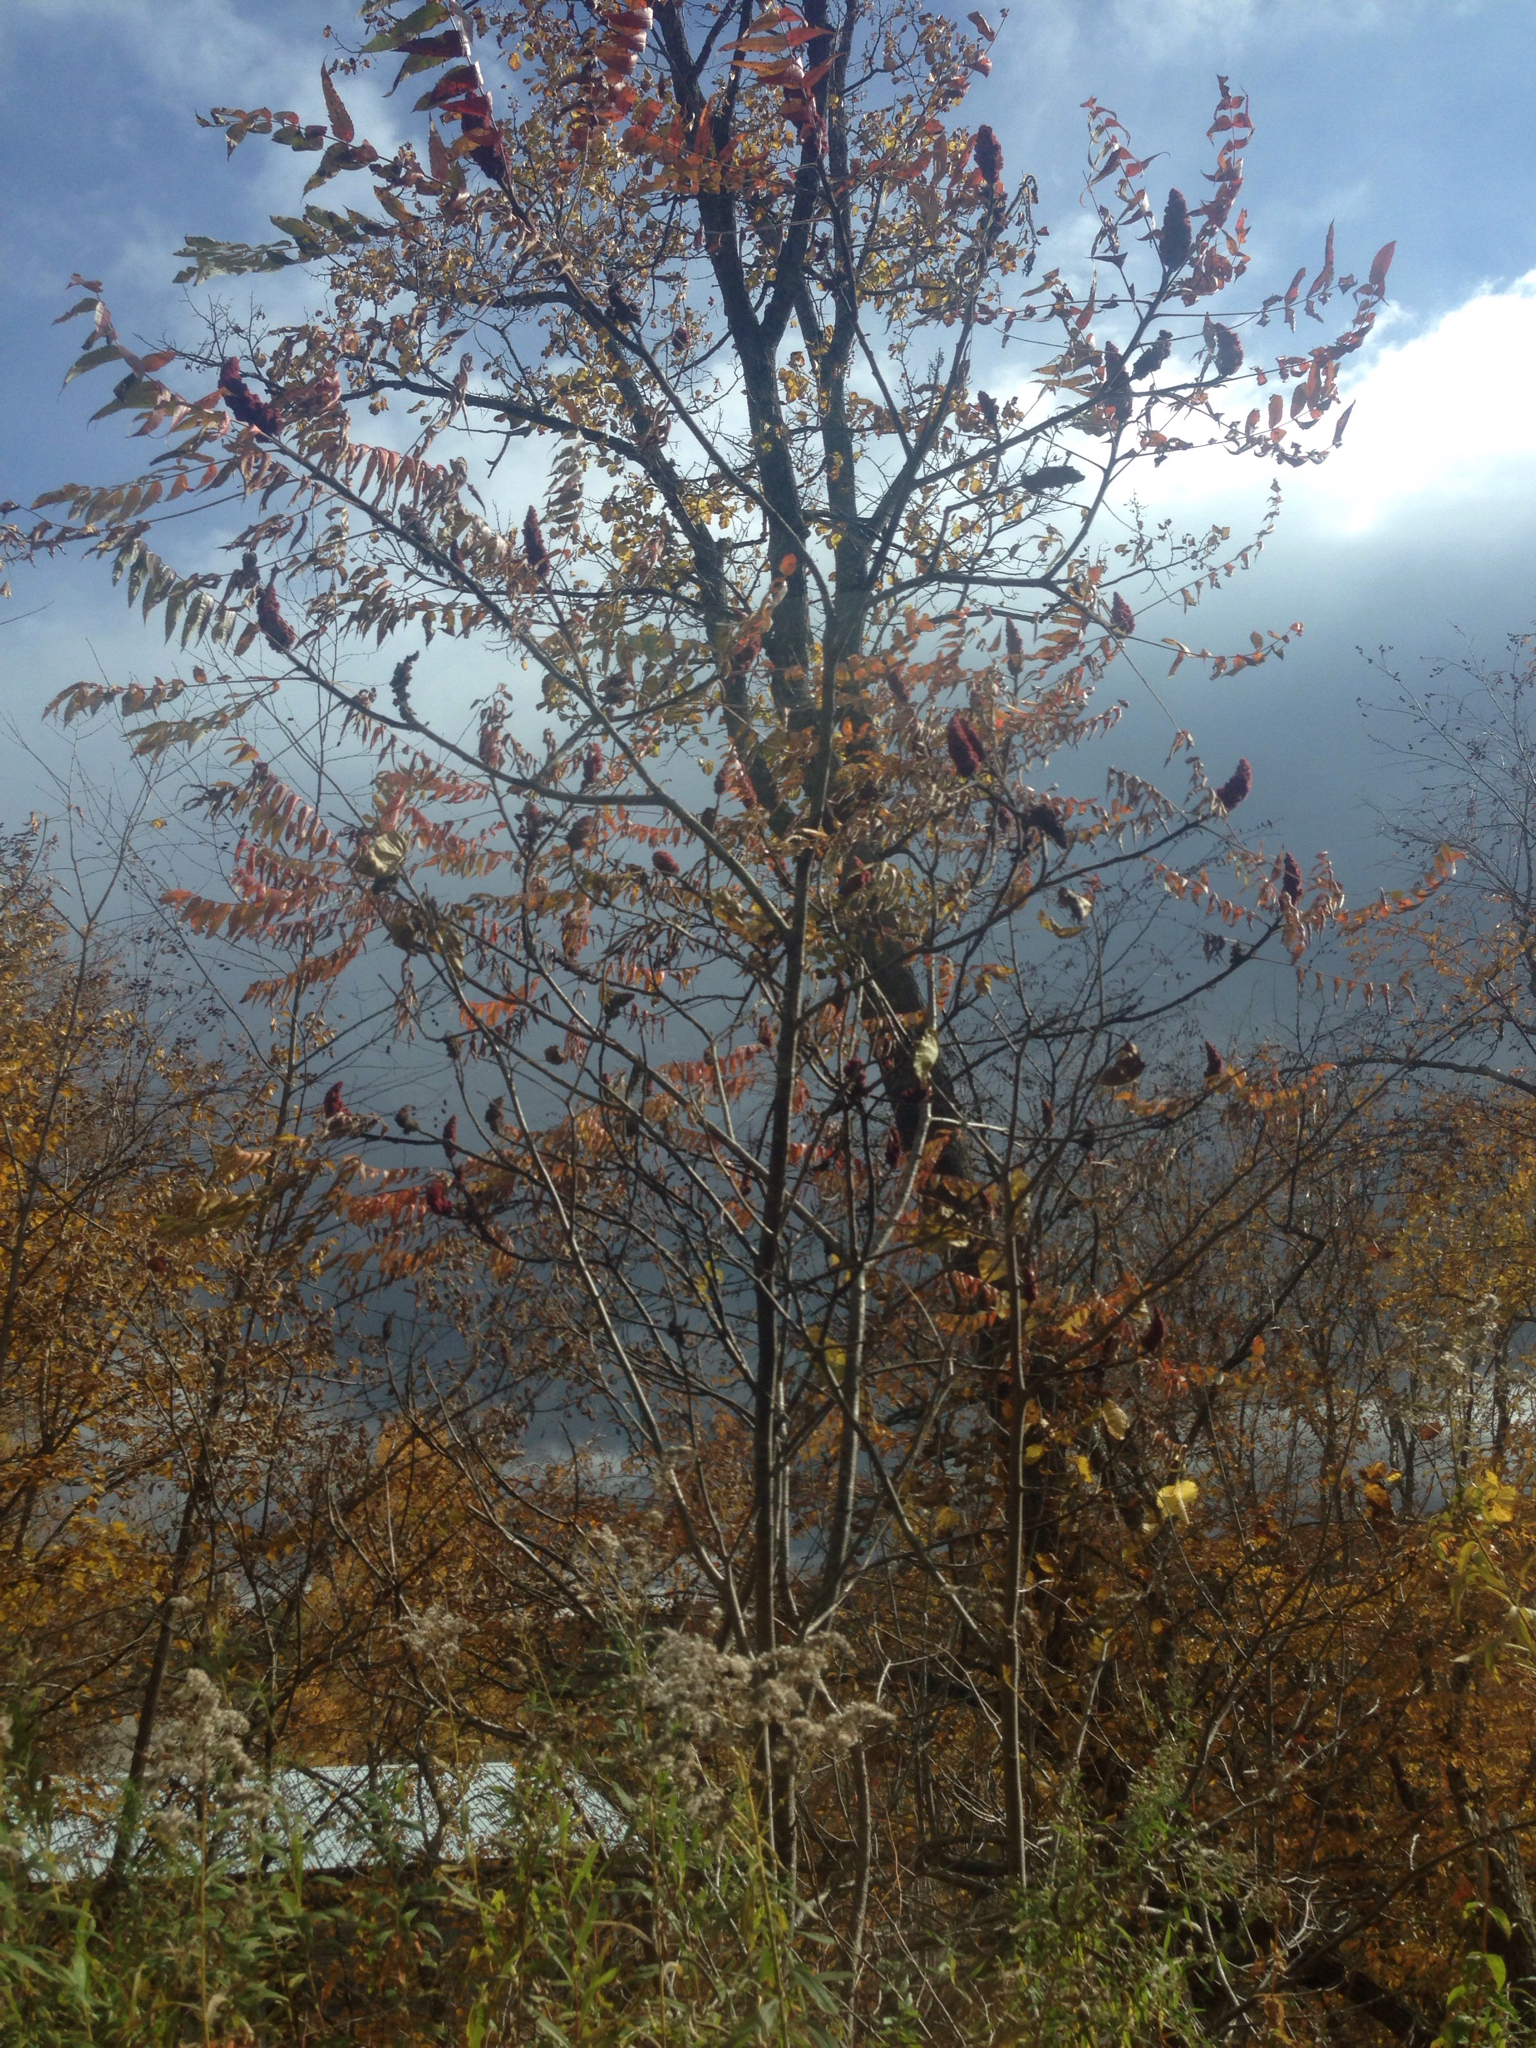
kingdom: Plantae
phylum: Tracheophyta
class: Magnoliopsida
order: Sapindales
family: Anacardiaceae
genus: Rhus
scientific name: Rhus typhina
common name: Staghorn sumac
